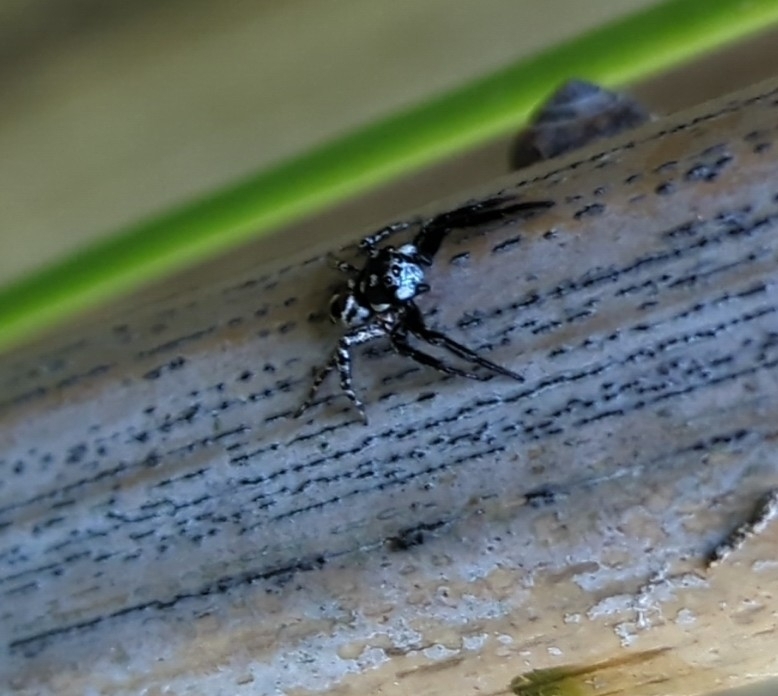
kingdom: Animalia
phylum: Arthropoda
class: Arachnida
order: Araneae
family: Salticidae
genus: Anasaitis
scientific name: Anasaitis canosa
